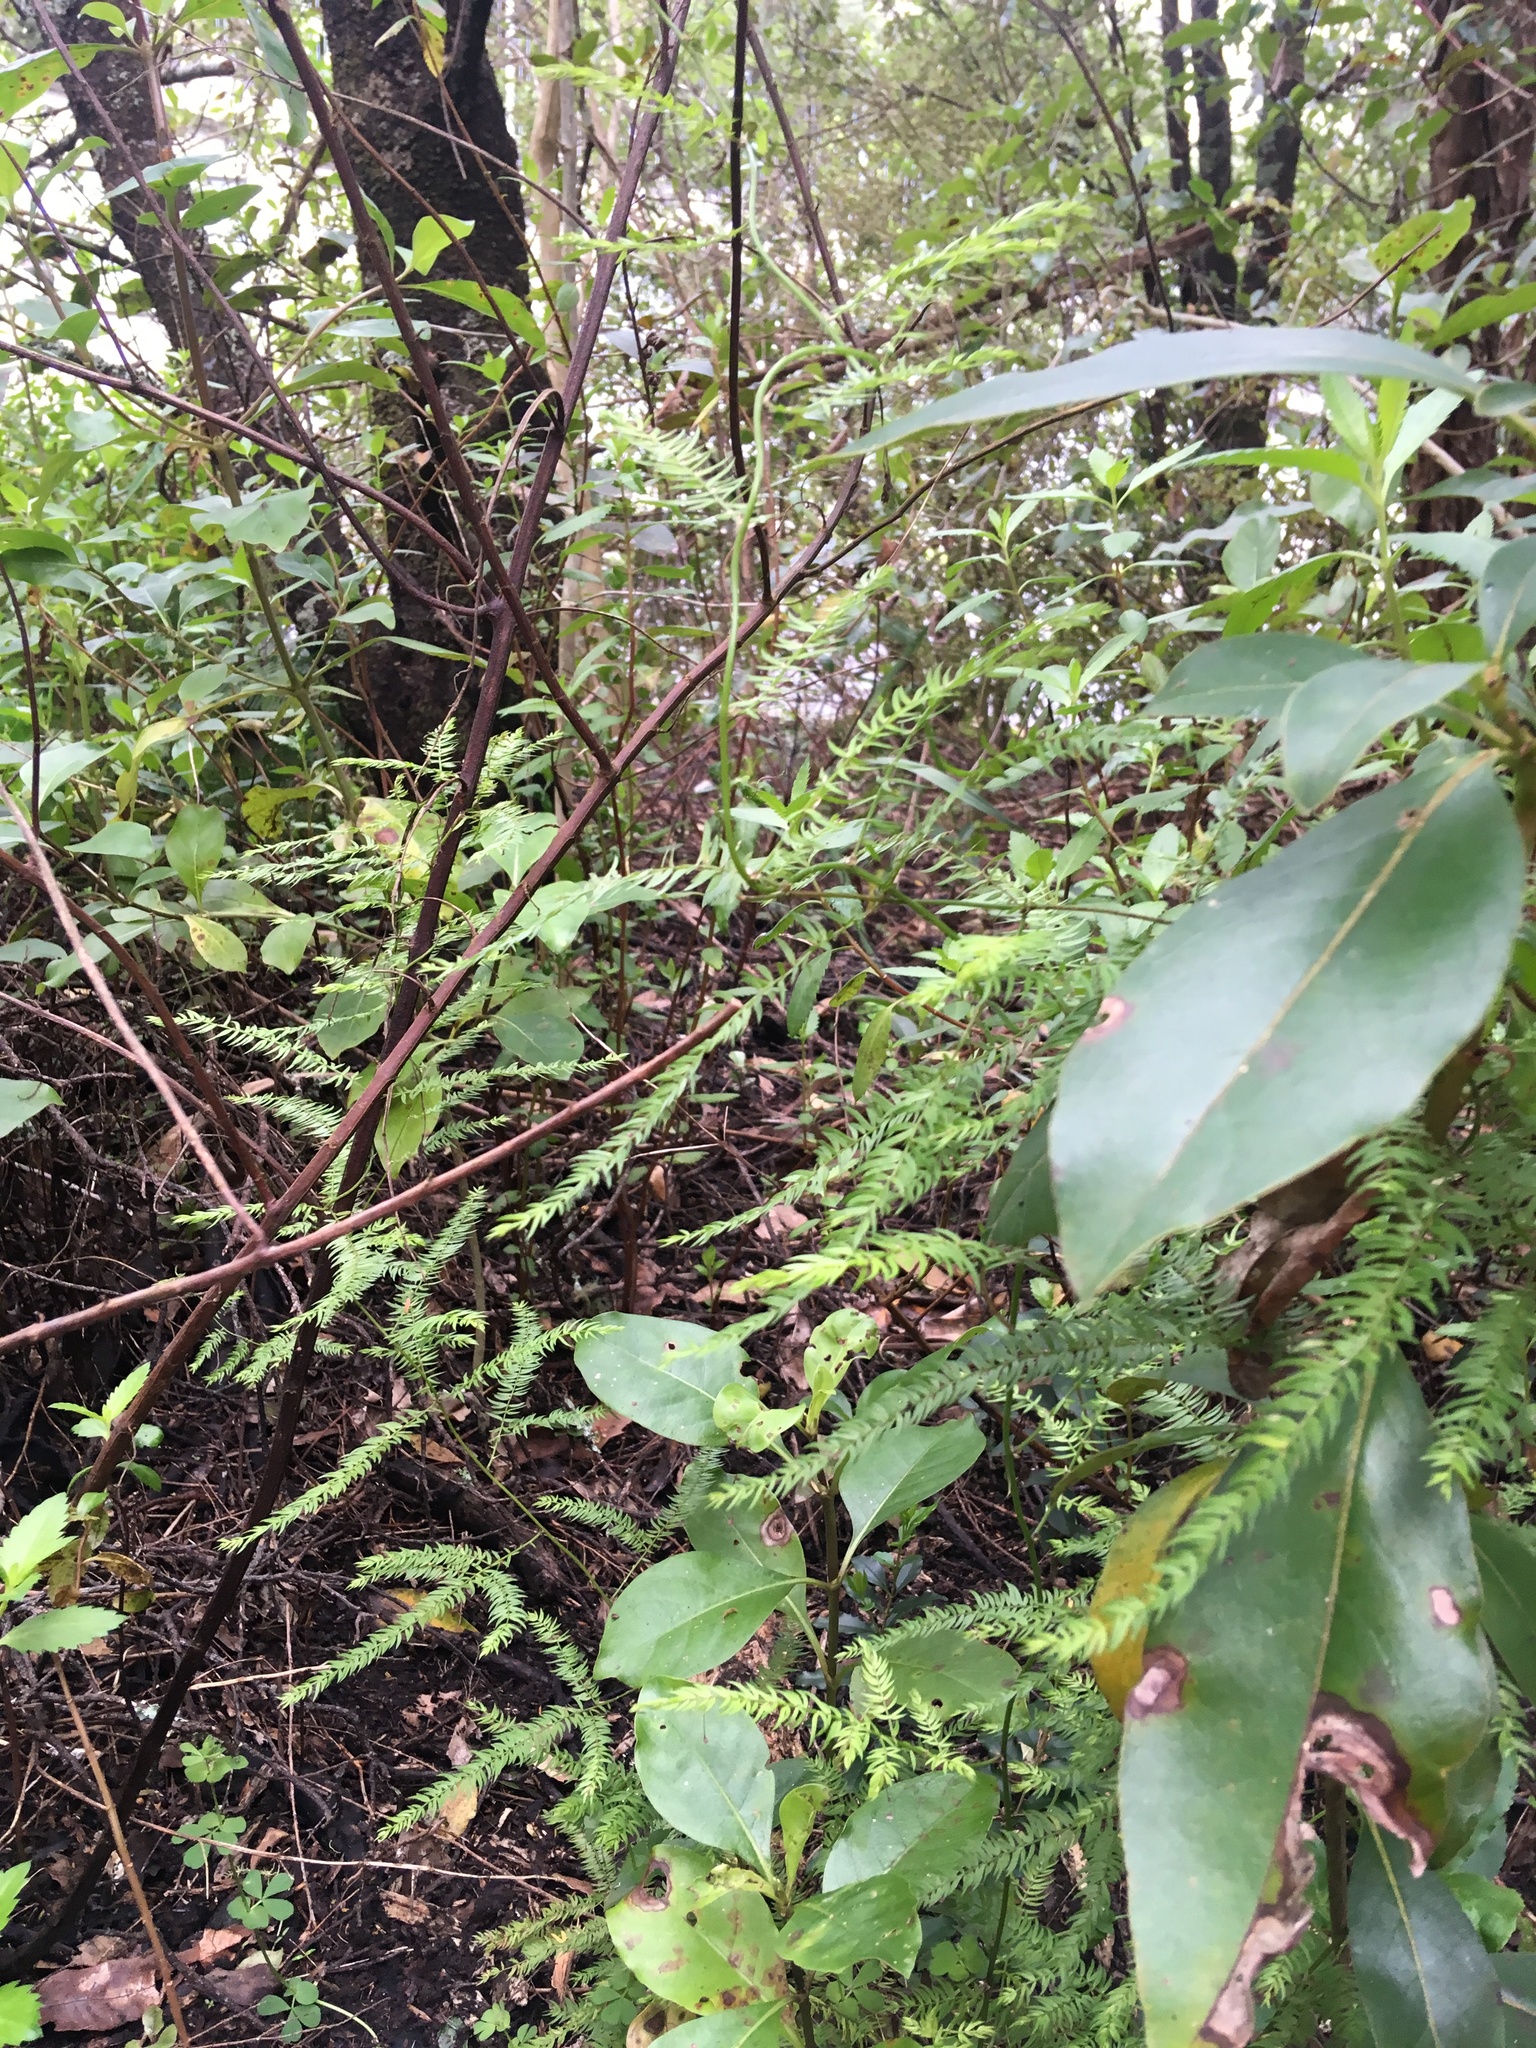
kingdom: Plantae
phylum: Tracheophyta
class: Liliopsida
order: Asparagales
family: Asparagaceae
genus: Asparagus
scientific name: Asparagus scandens
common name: Asparagus-fern
